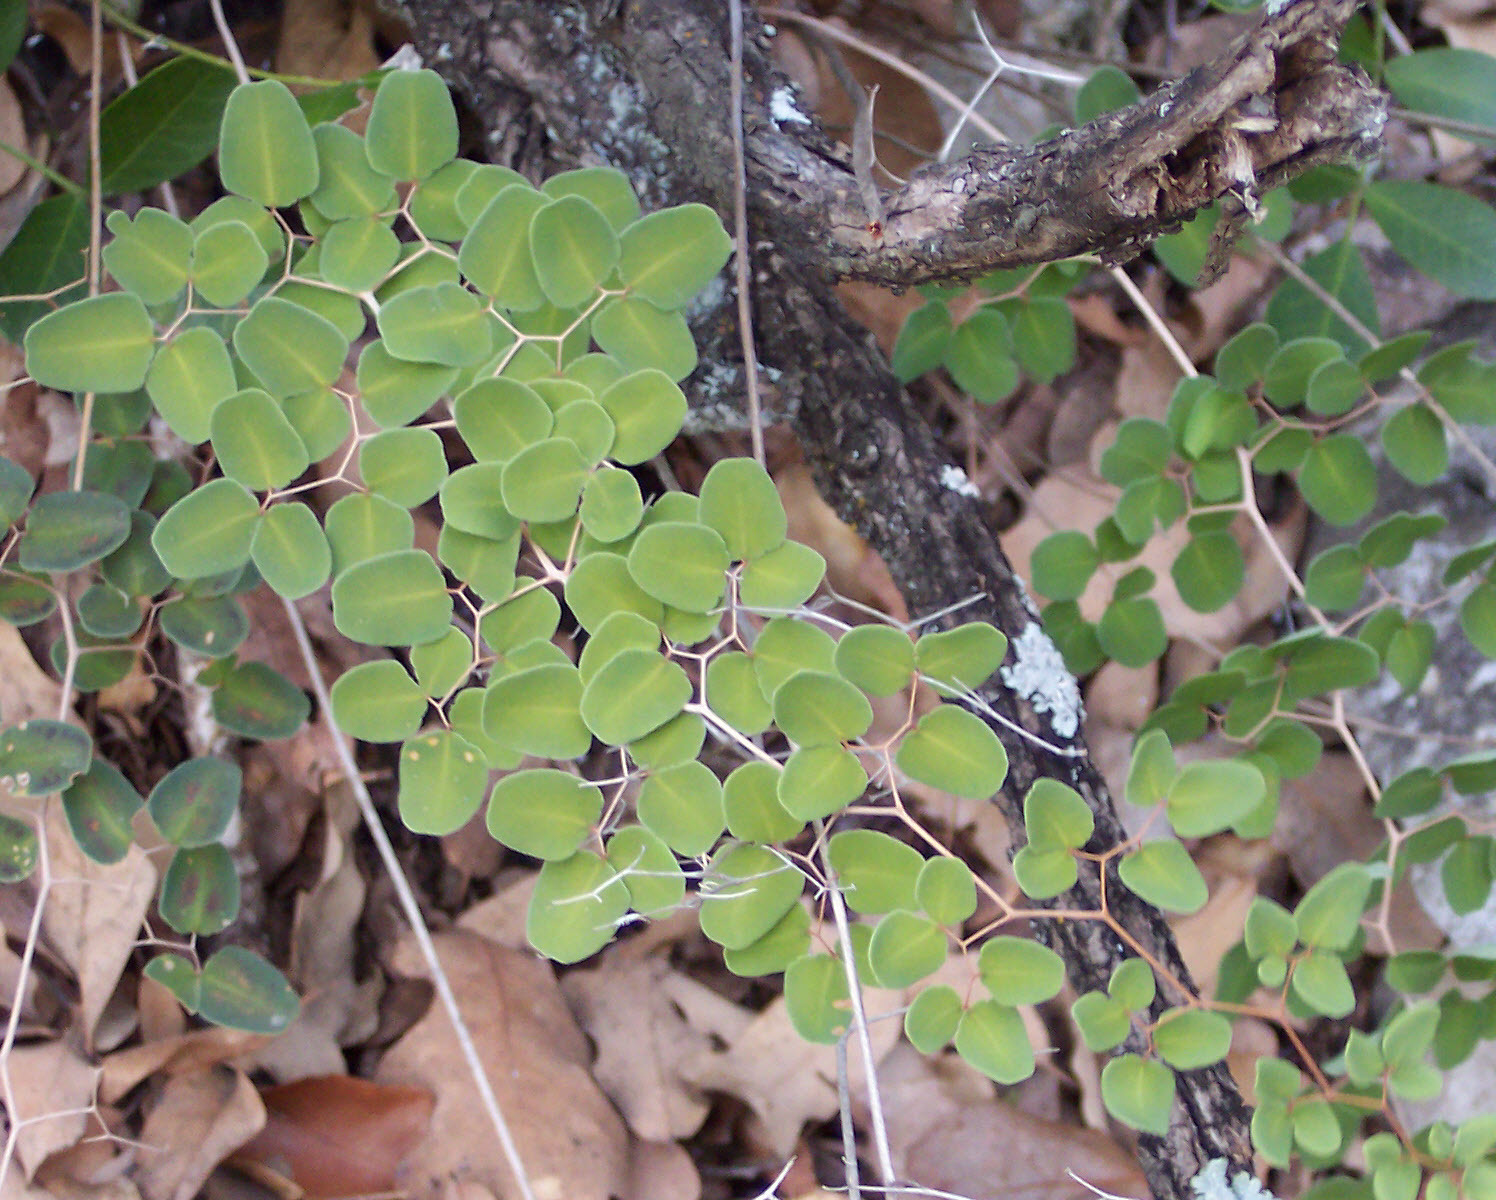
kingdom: Plantae
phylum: Tracheophyta
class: Polypodiopsida
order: Polypodiales
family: Pteridaceae
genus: Pellaea
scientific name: Pellaea ovata
